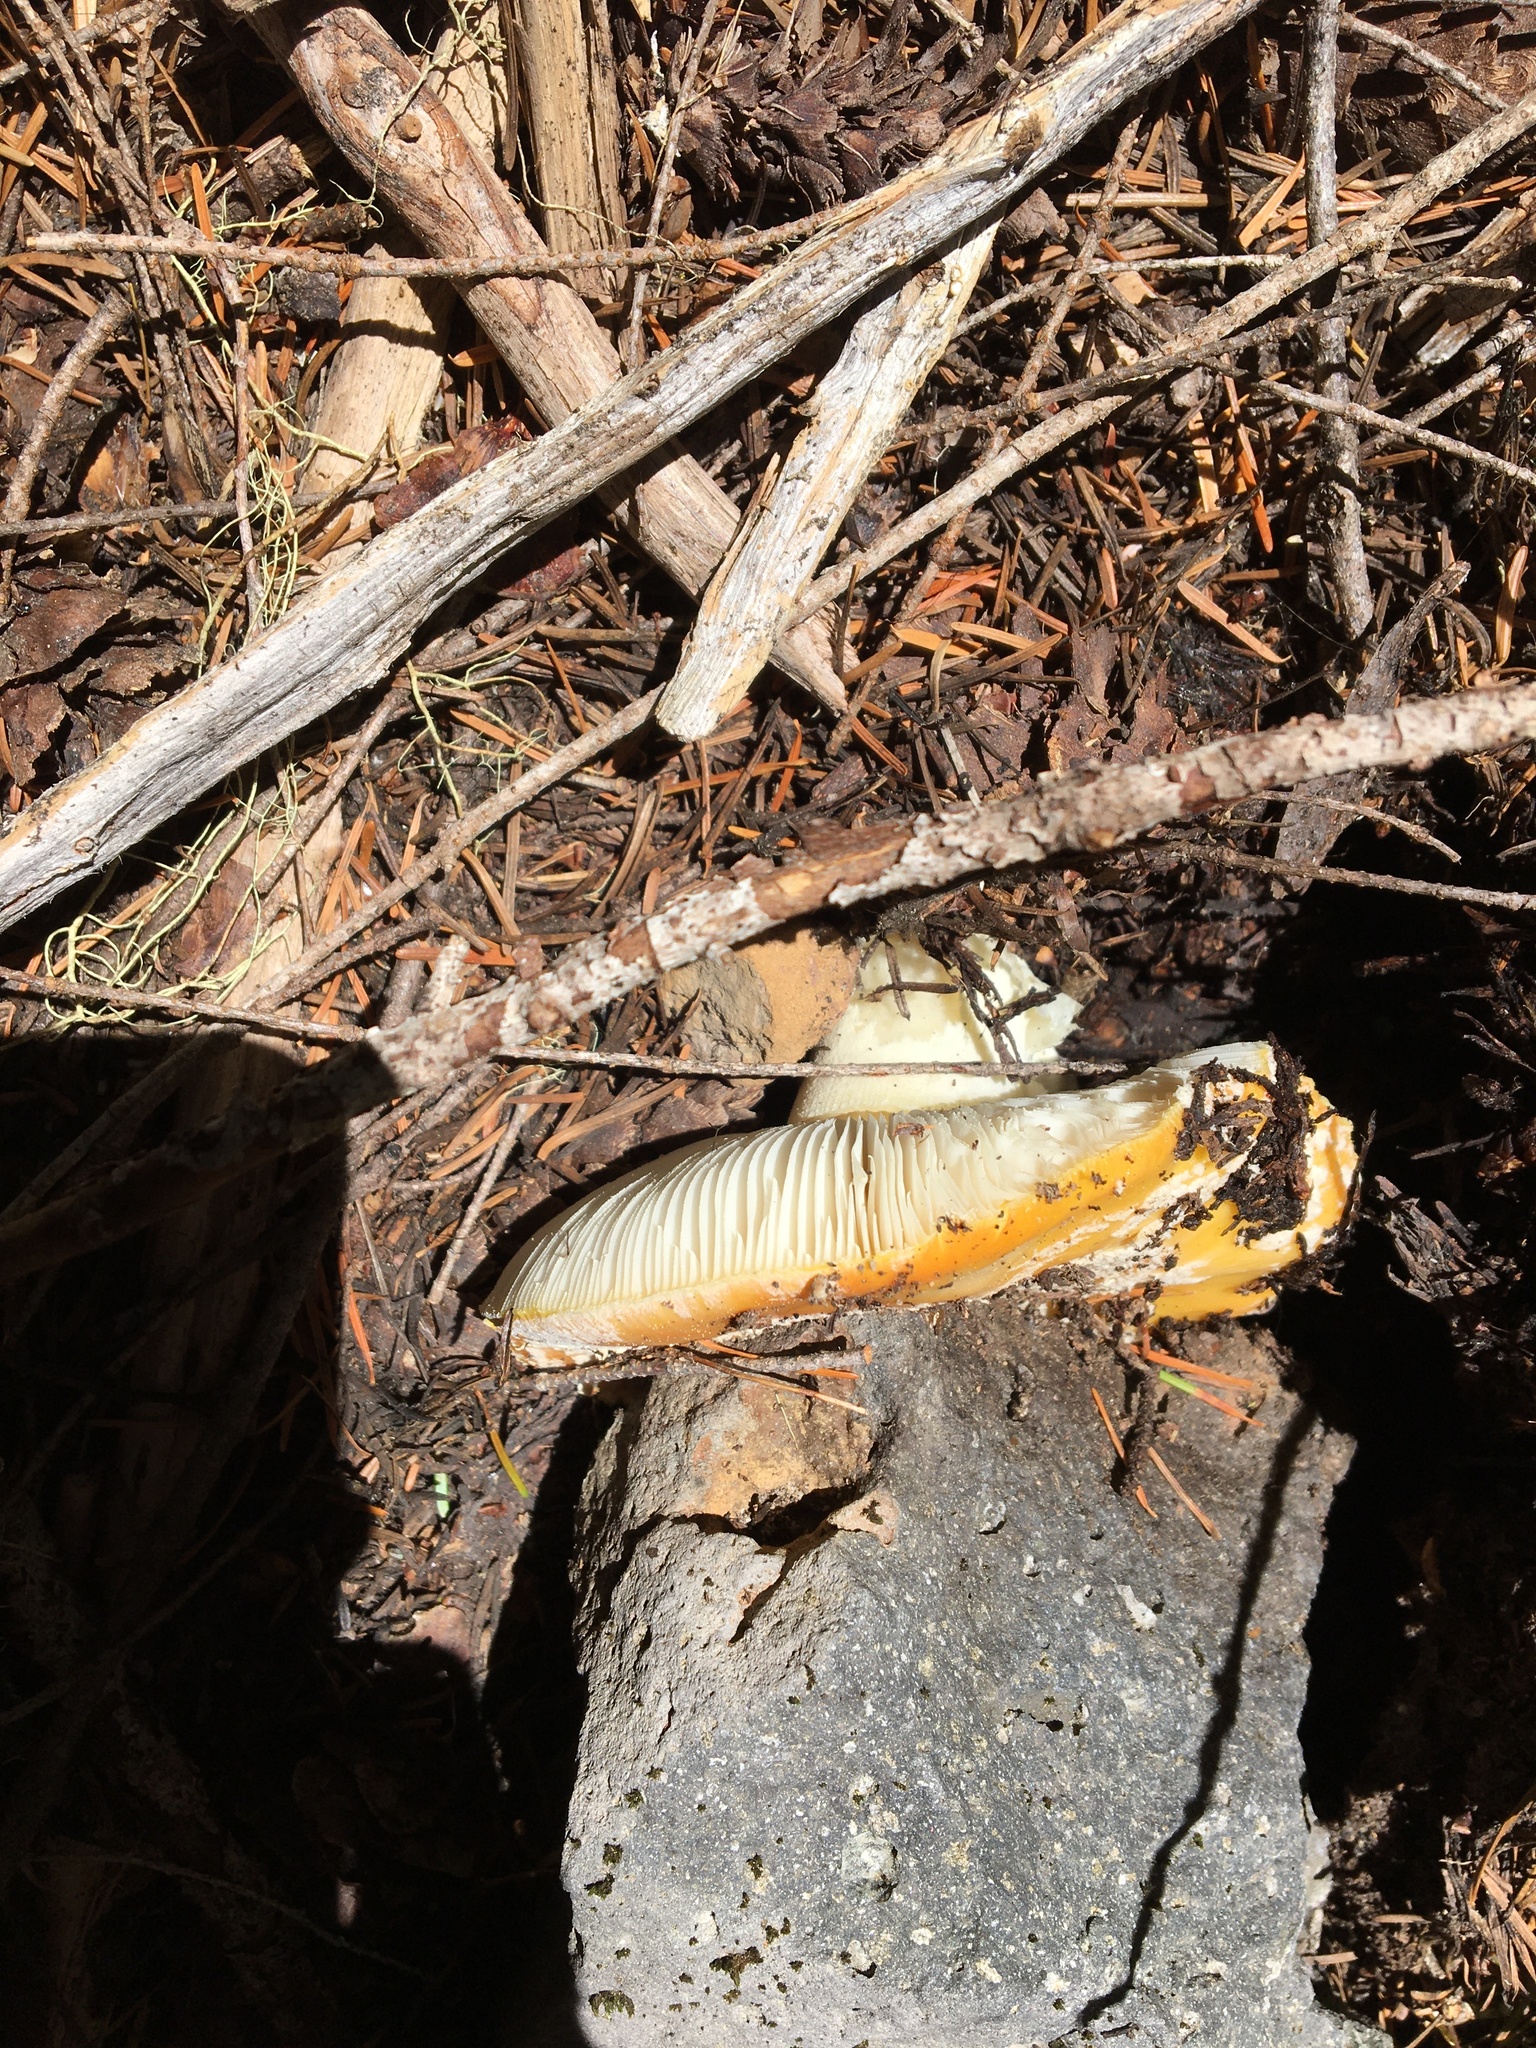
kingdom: Fungi
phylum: Basidiomycota
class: Agaricomycetes
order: Agaricales
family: Amanitaceae
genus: Amanita
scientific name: Amanita aprica
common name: Sunshine amanita
